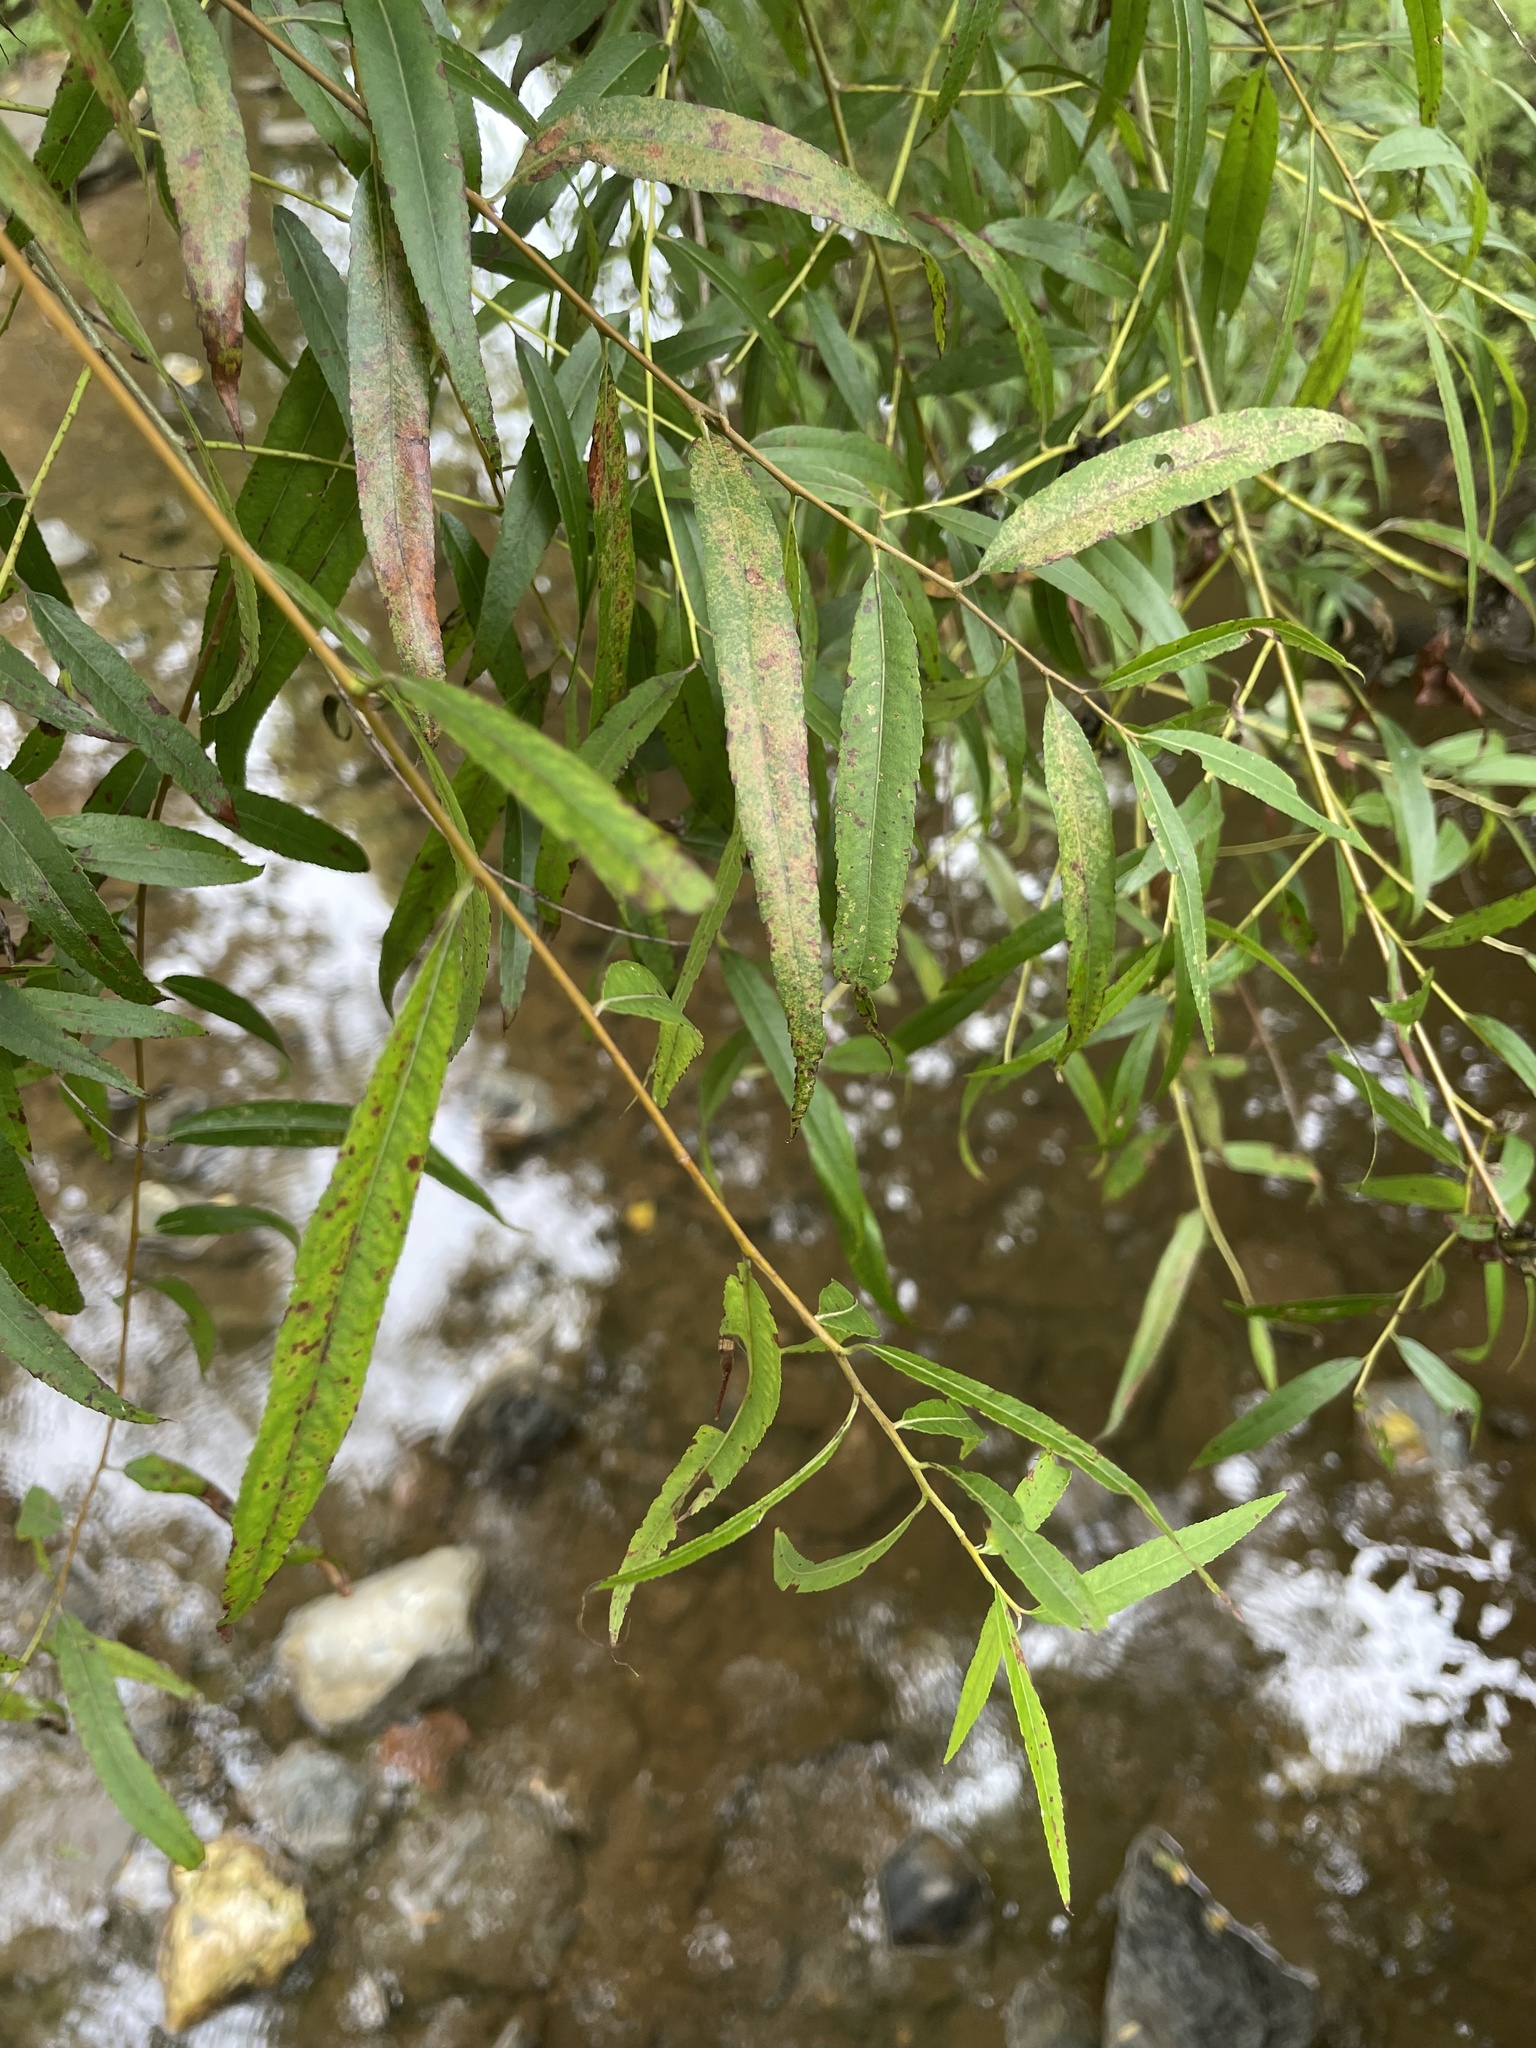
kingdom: Plantae
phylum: Tracheophyta
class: Magnoliopsida
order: Malpighiales
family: Salicaceae
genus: Salix
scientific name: Salix nigra
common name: Black willow
